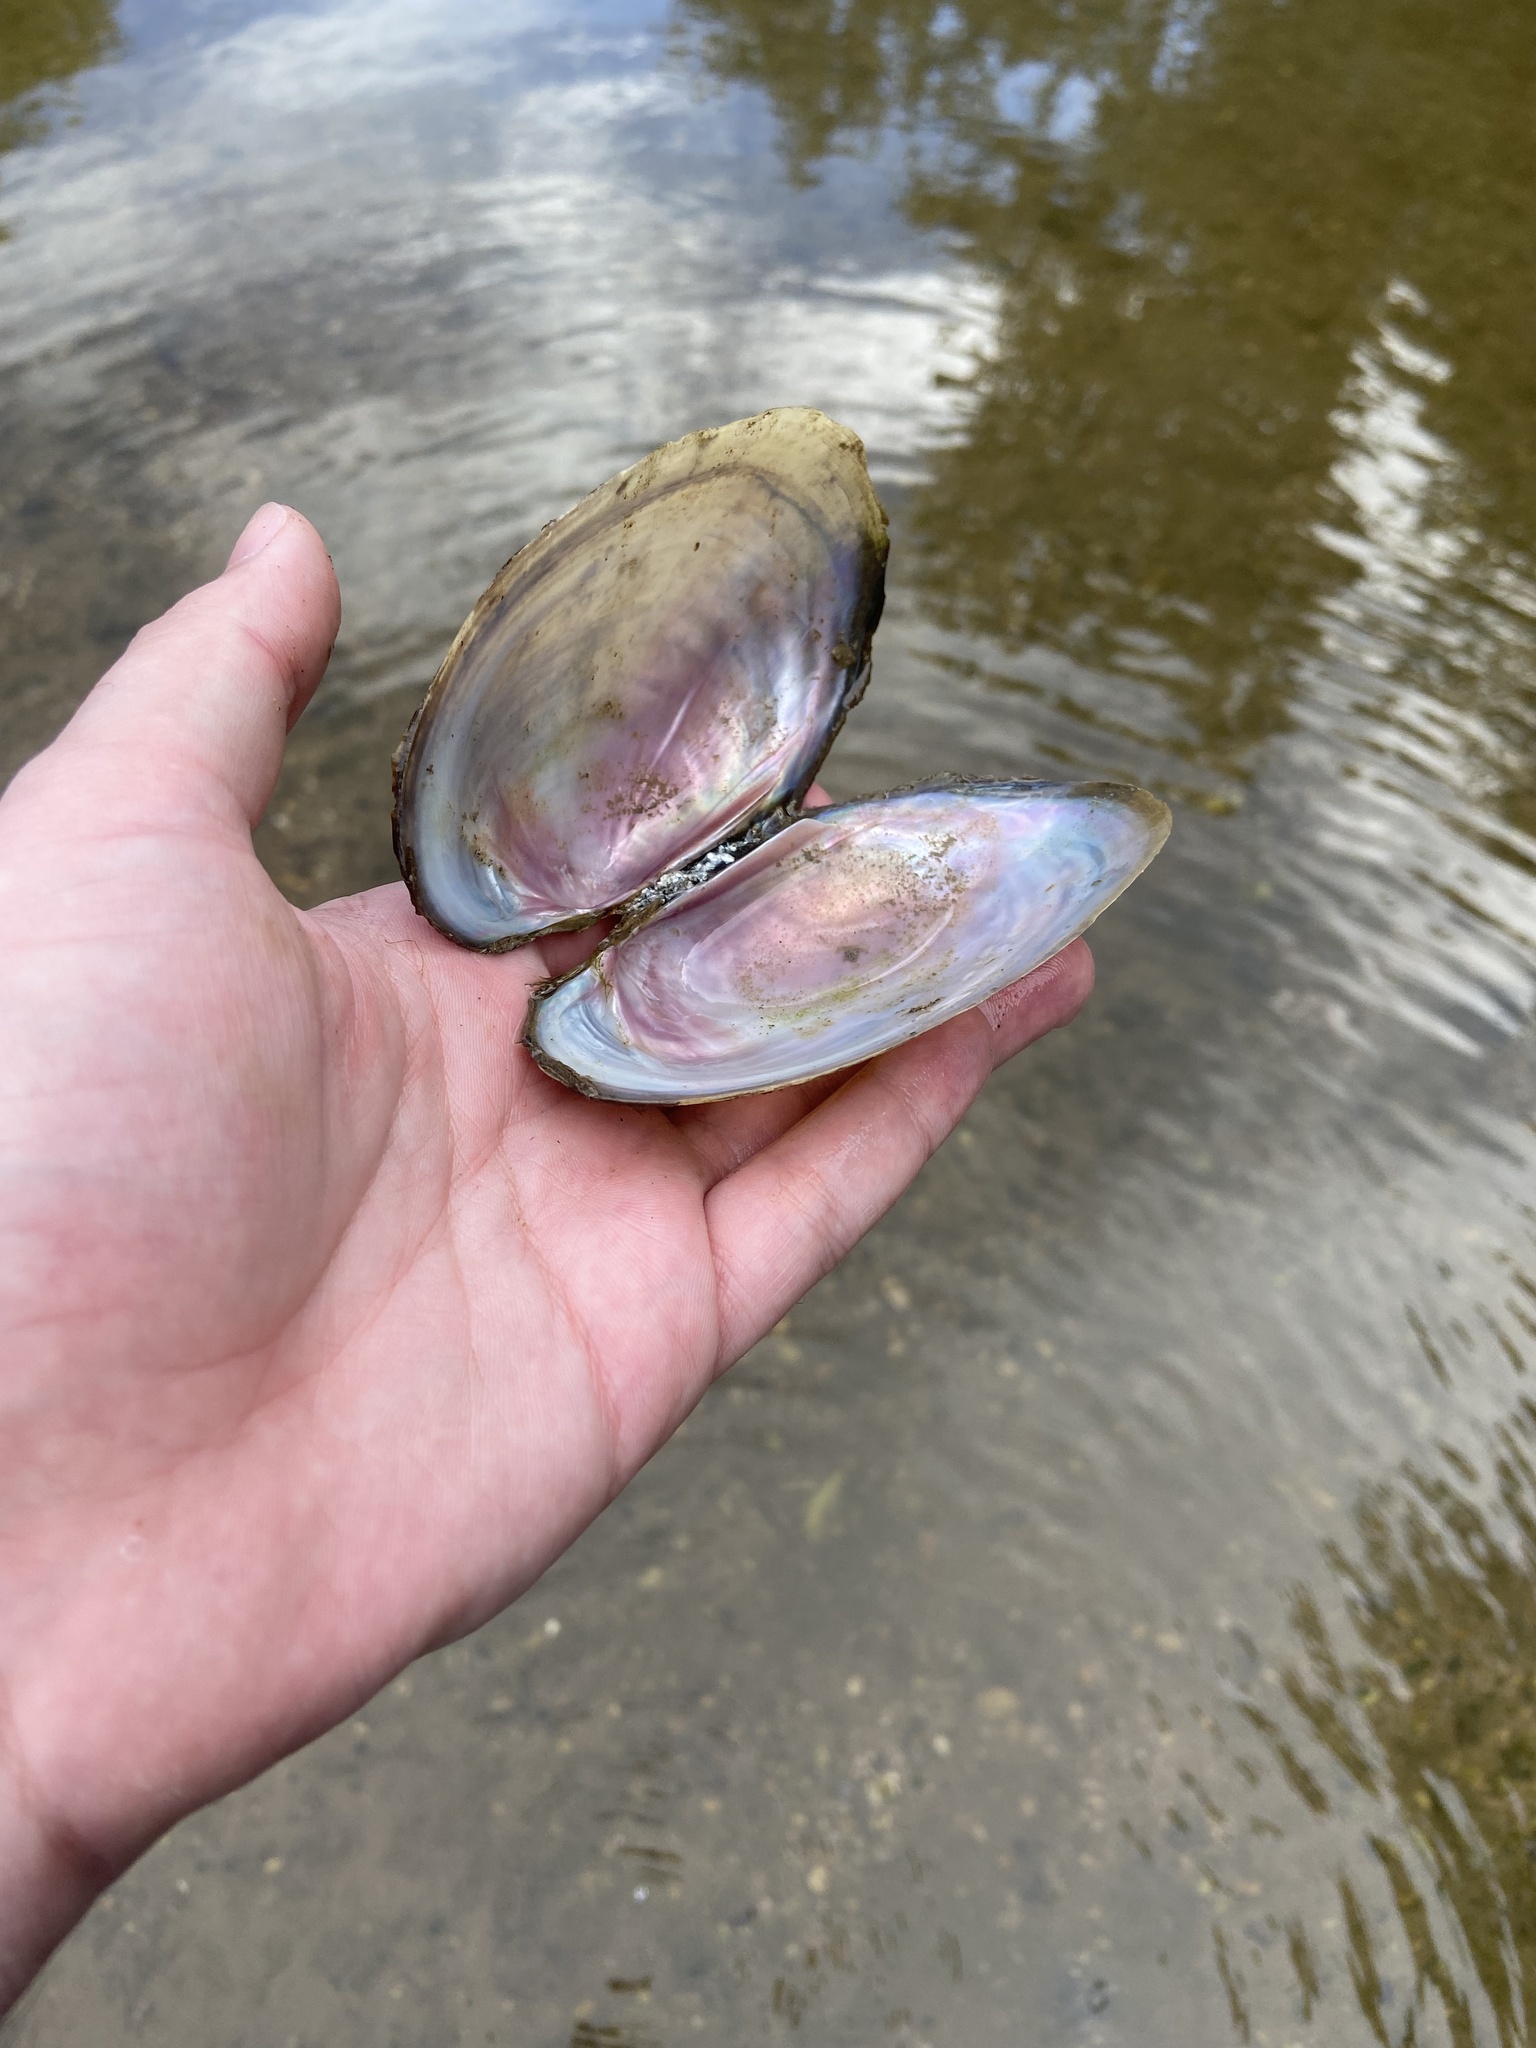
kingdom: Animalia
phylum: Mollusca
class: Bivalvia
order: Unionida
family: Unionidae
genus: Potamilus
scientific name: Potamilus fragilis
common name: Fragile papershell
